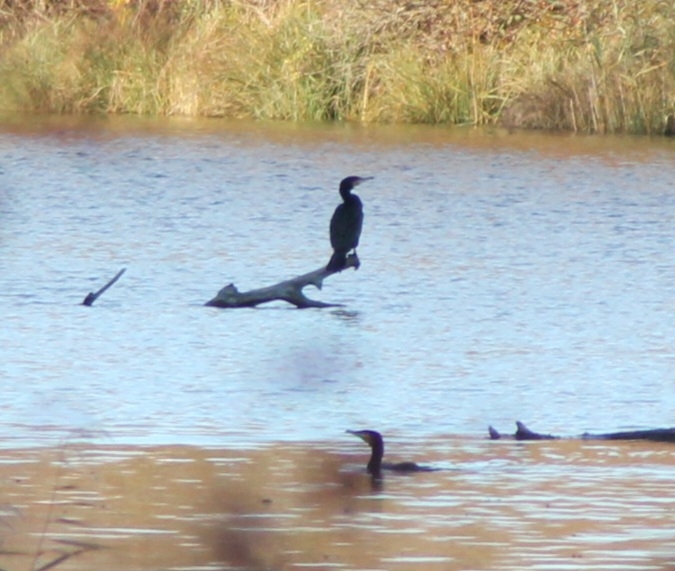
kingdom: Animalia
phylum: Chordata
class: Aves
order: Suliformes
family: Phalacrocoracidae
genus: Phalacrocorax
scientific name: Phalacrocorax carbo
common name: Great cormorant
